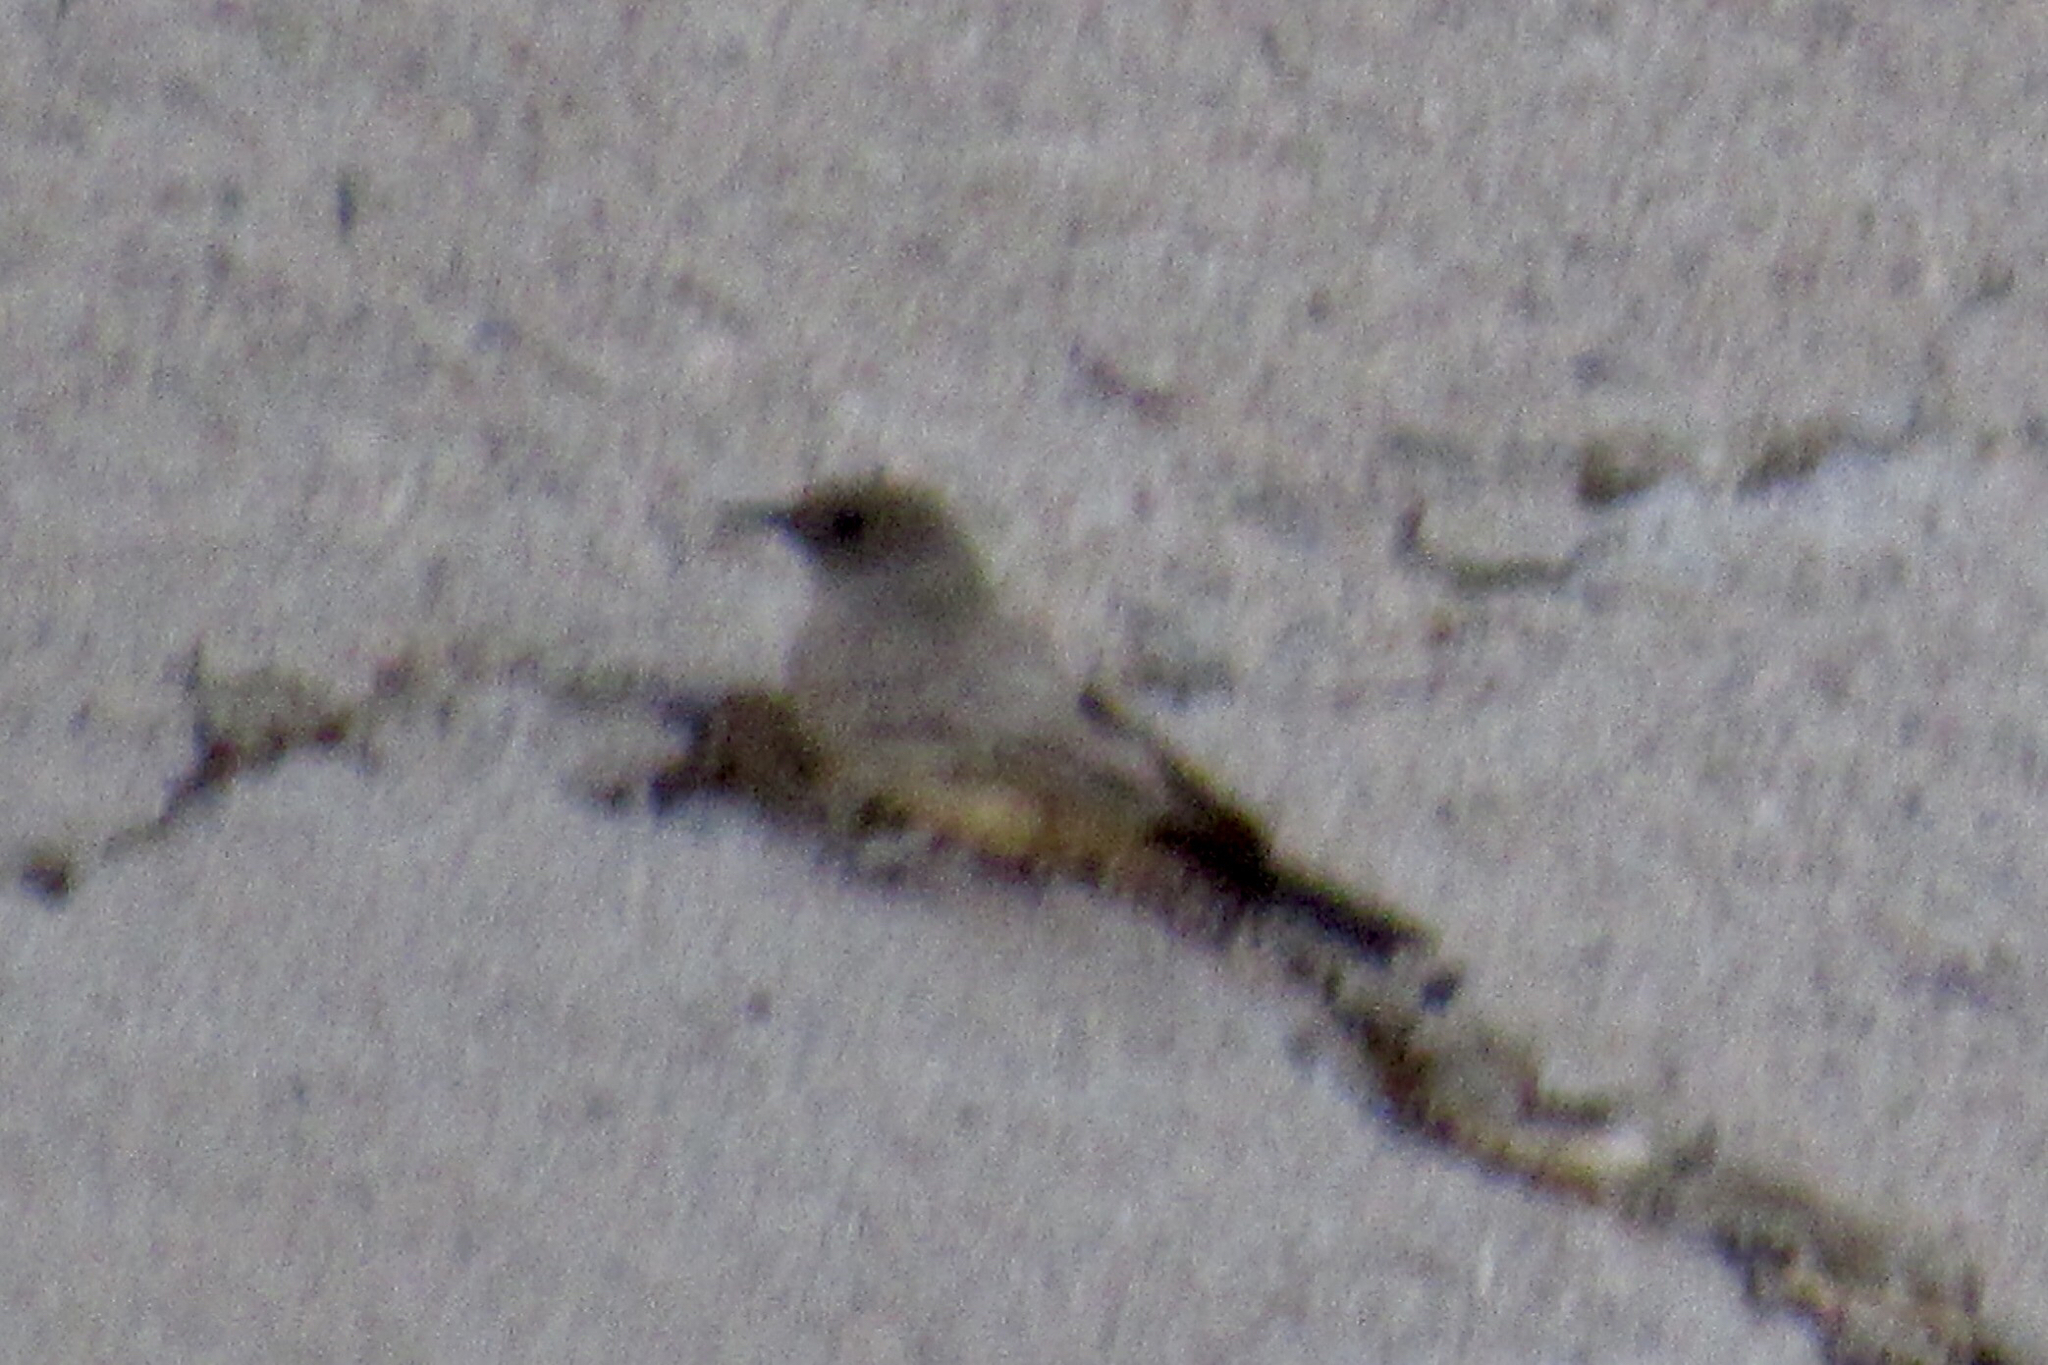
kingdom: Animalia
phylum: Chordata
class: Aves
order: Passeriformes
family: Tyrannidae
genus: Sayornis
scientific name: Sayornis saya
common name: Say's phoebe
